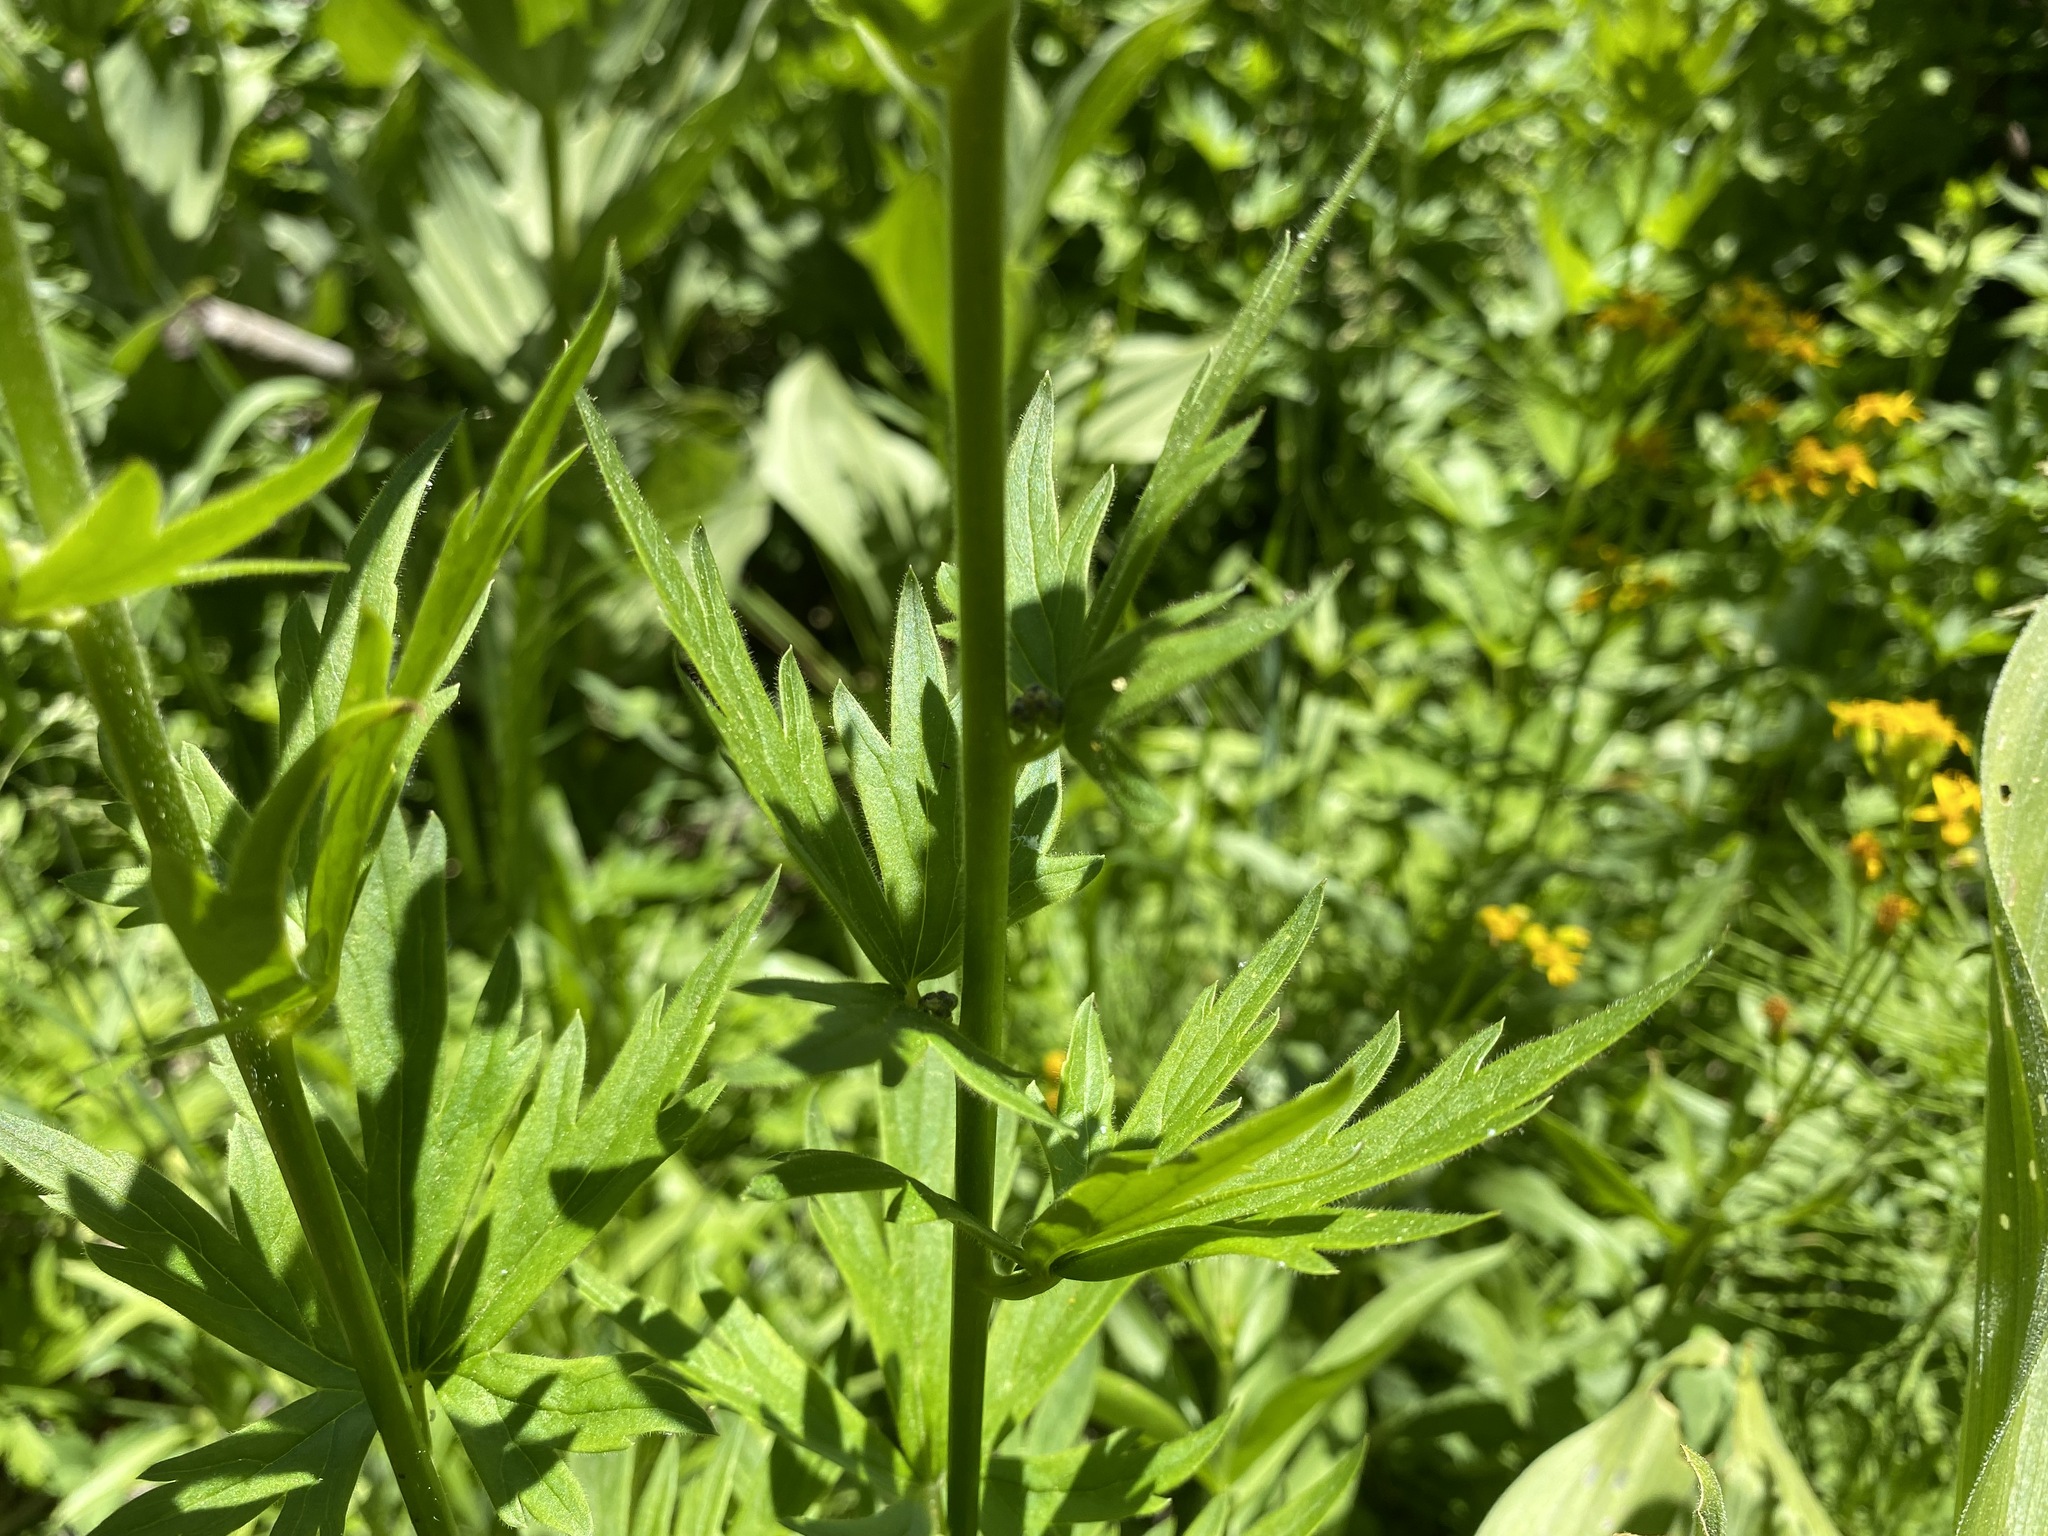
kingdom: Plantae
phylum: Tracheophyta
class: Magnoliopsida
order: Ranunculales
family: Ranunculaceae
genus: Aconitum
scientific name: Aconitum columbianum
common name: Columbia aconite
